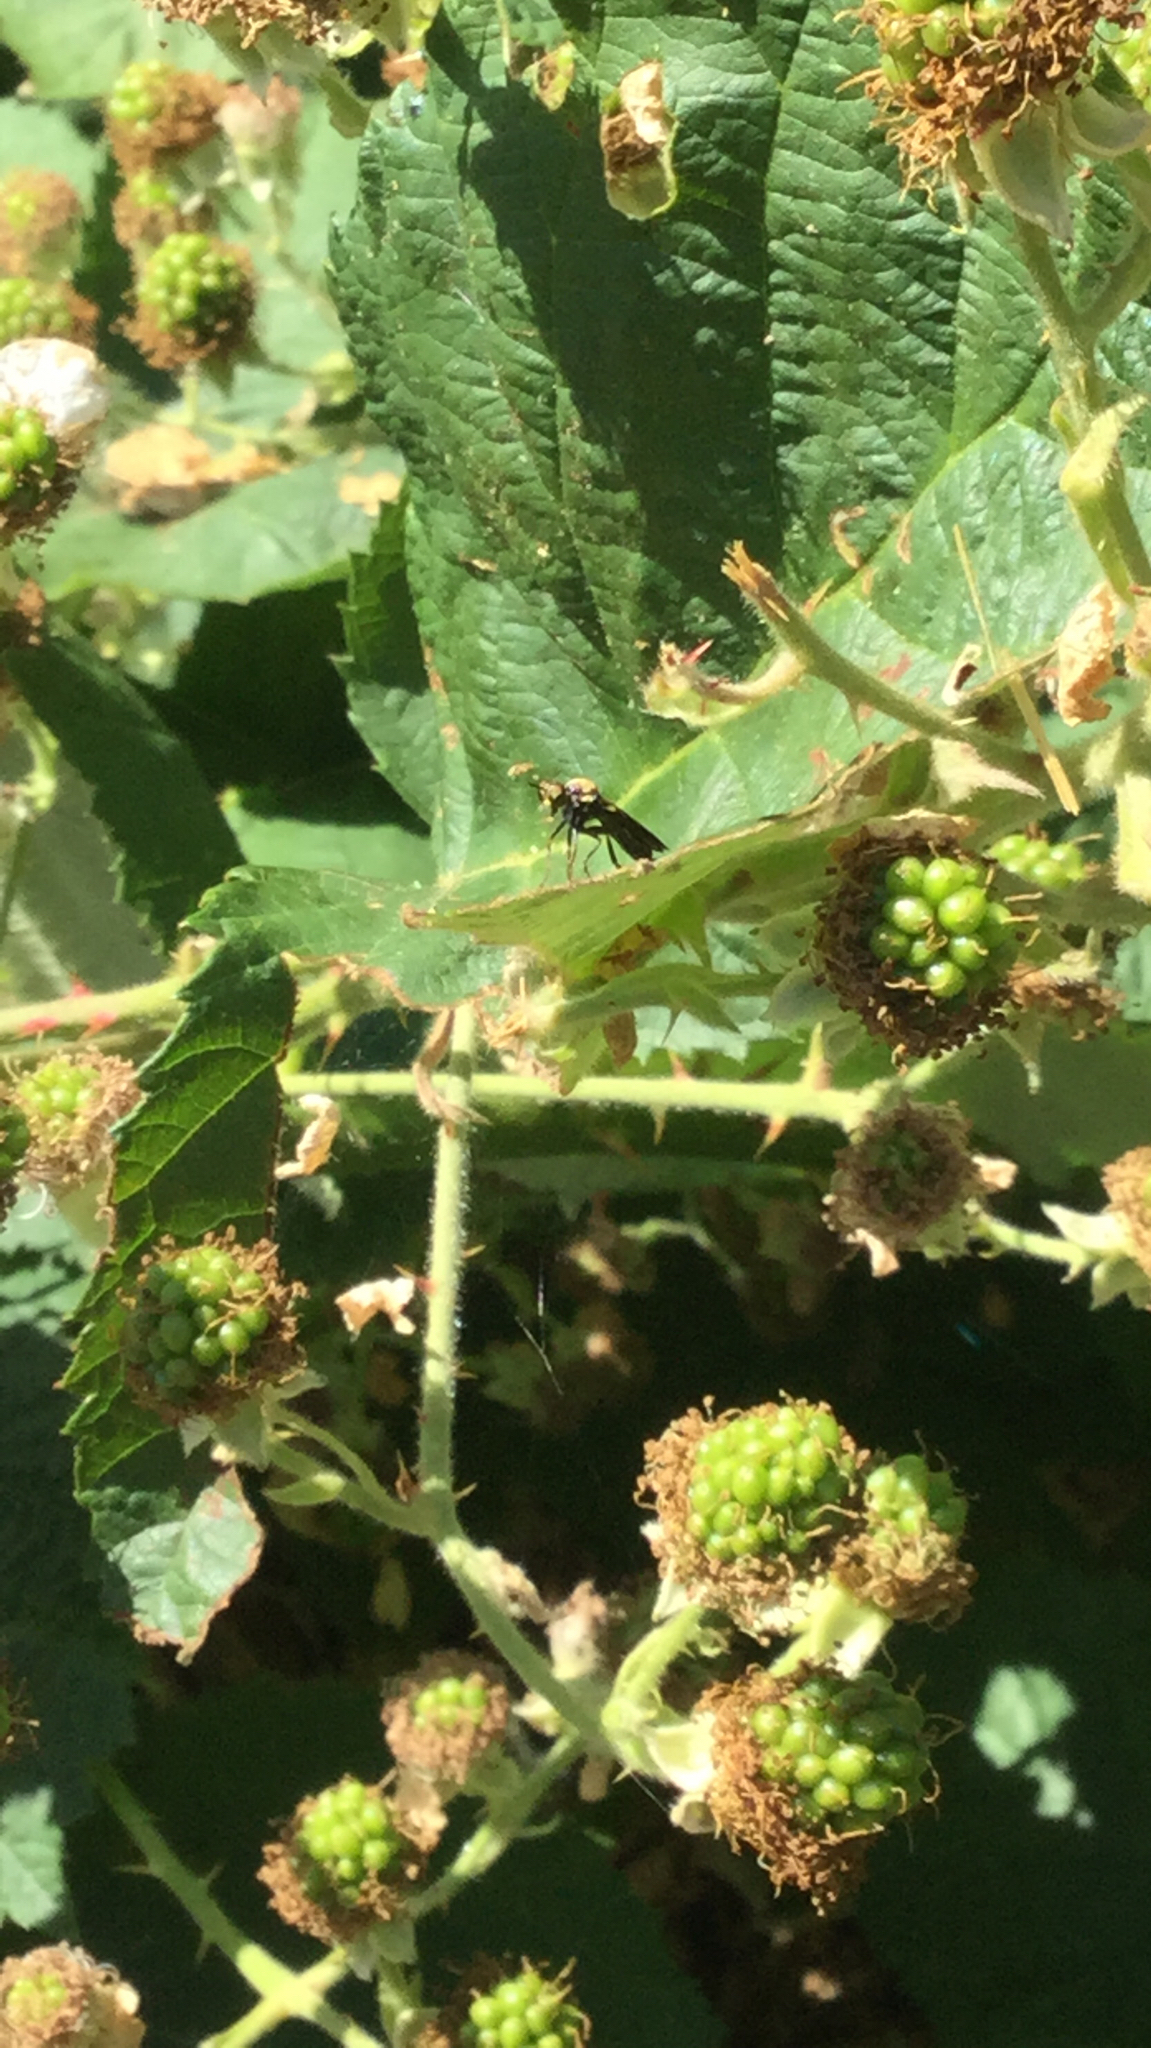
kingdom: Animalia
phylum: Arthropoda
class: Insecta
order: Diptera
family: Asilidae
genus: Eudioctria
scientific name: Eudioctria sackeni
